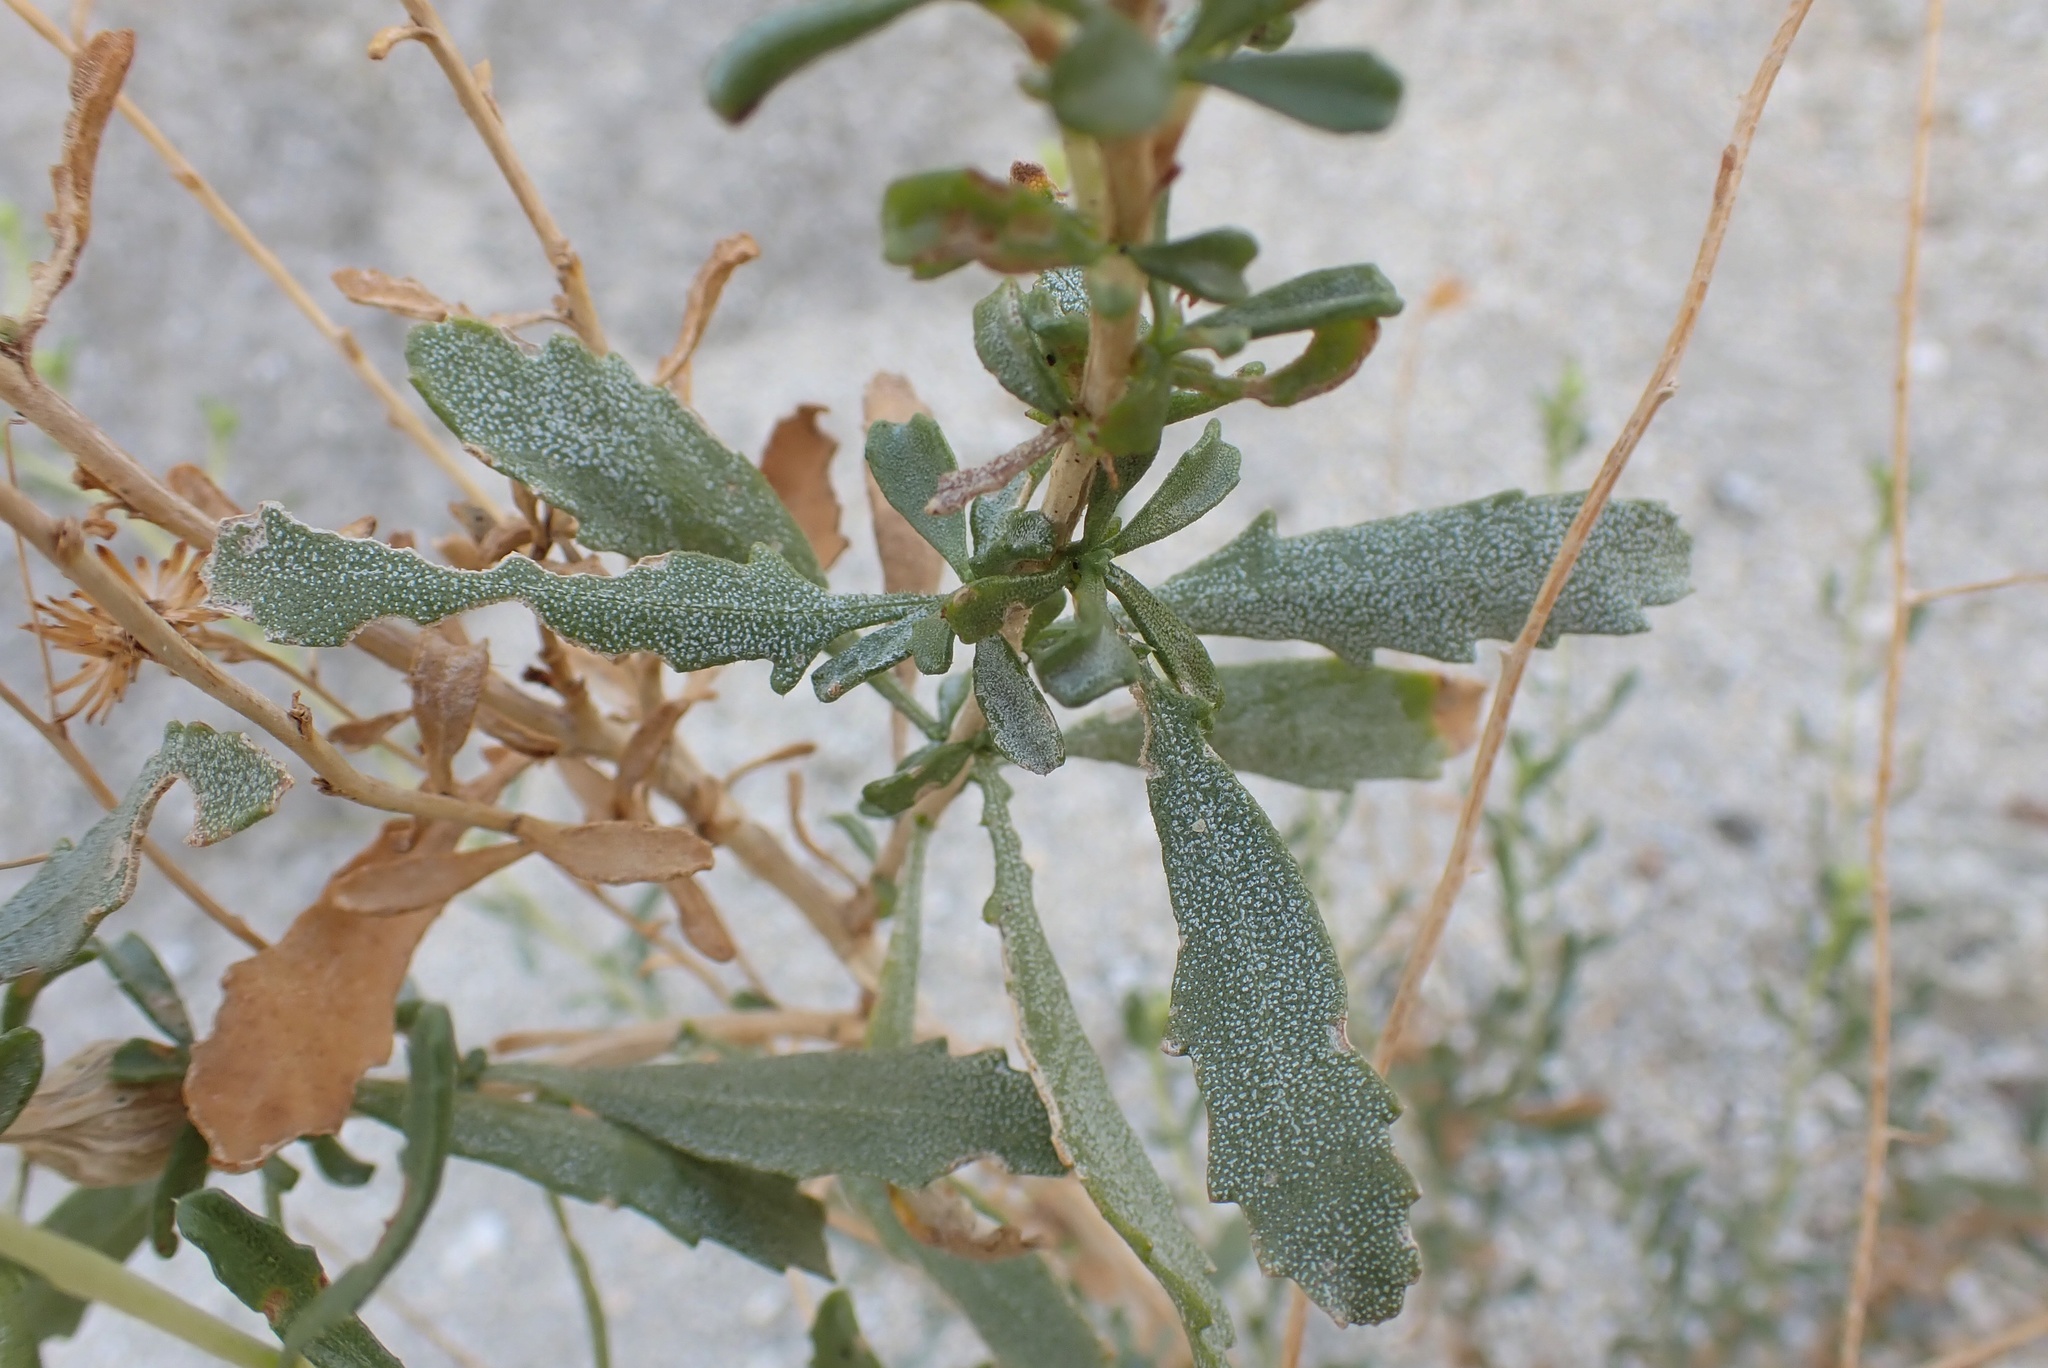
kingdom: Plantae
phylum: Tracheophyta
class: Magnoliopsida
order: Asterales
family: Asteraceae
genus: Isocoma
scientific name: Isocoma acradenia
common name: Alkali jimmyweed
